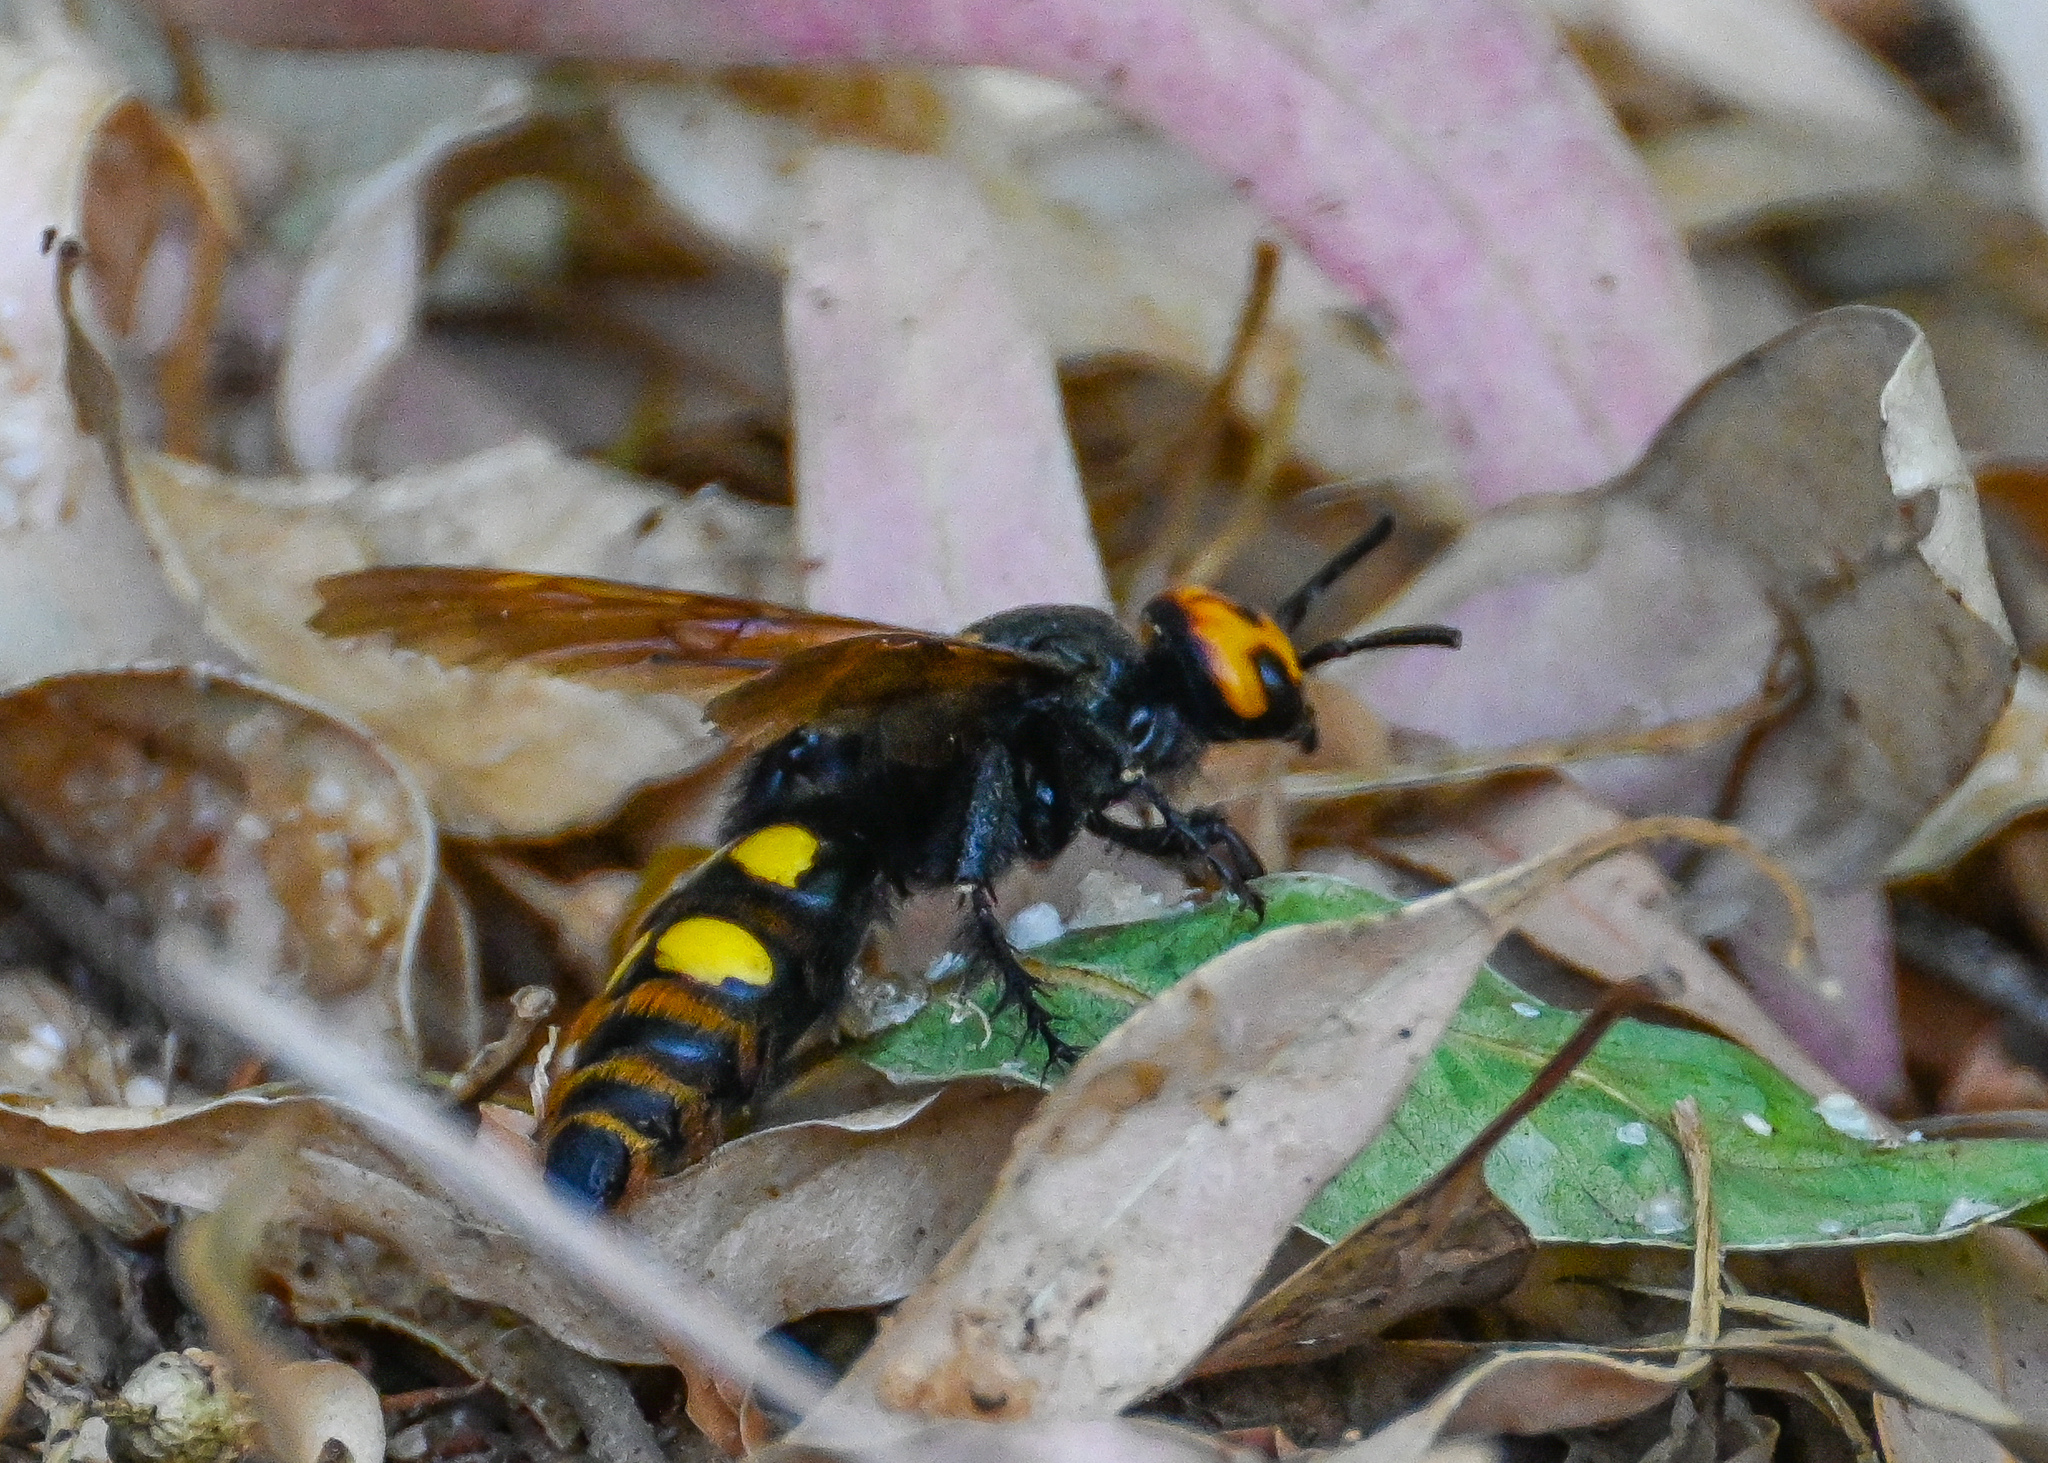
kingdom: Animalia
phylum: Arthropoda
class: Insecta
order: Hymenoptera
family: Scoliidae
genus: Megascolia
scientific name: Megascolia maculata
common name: Mammoth wasp
